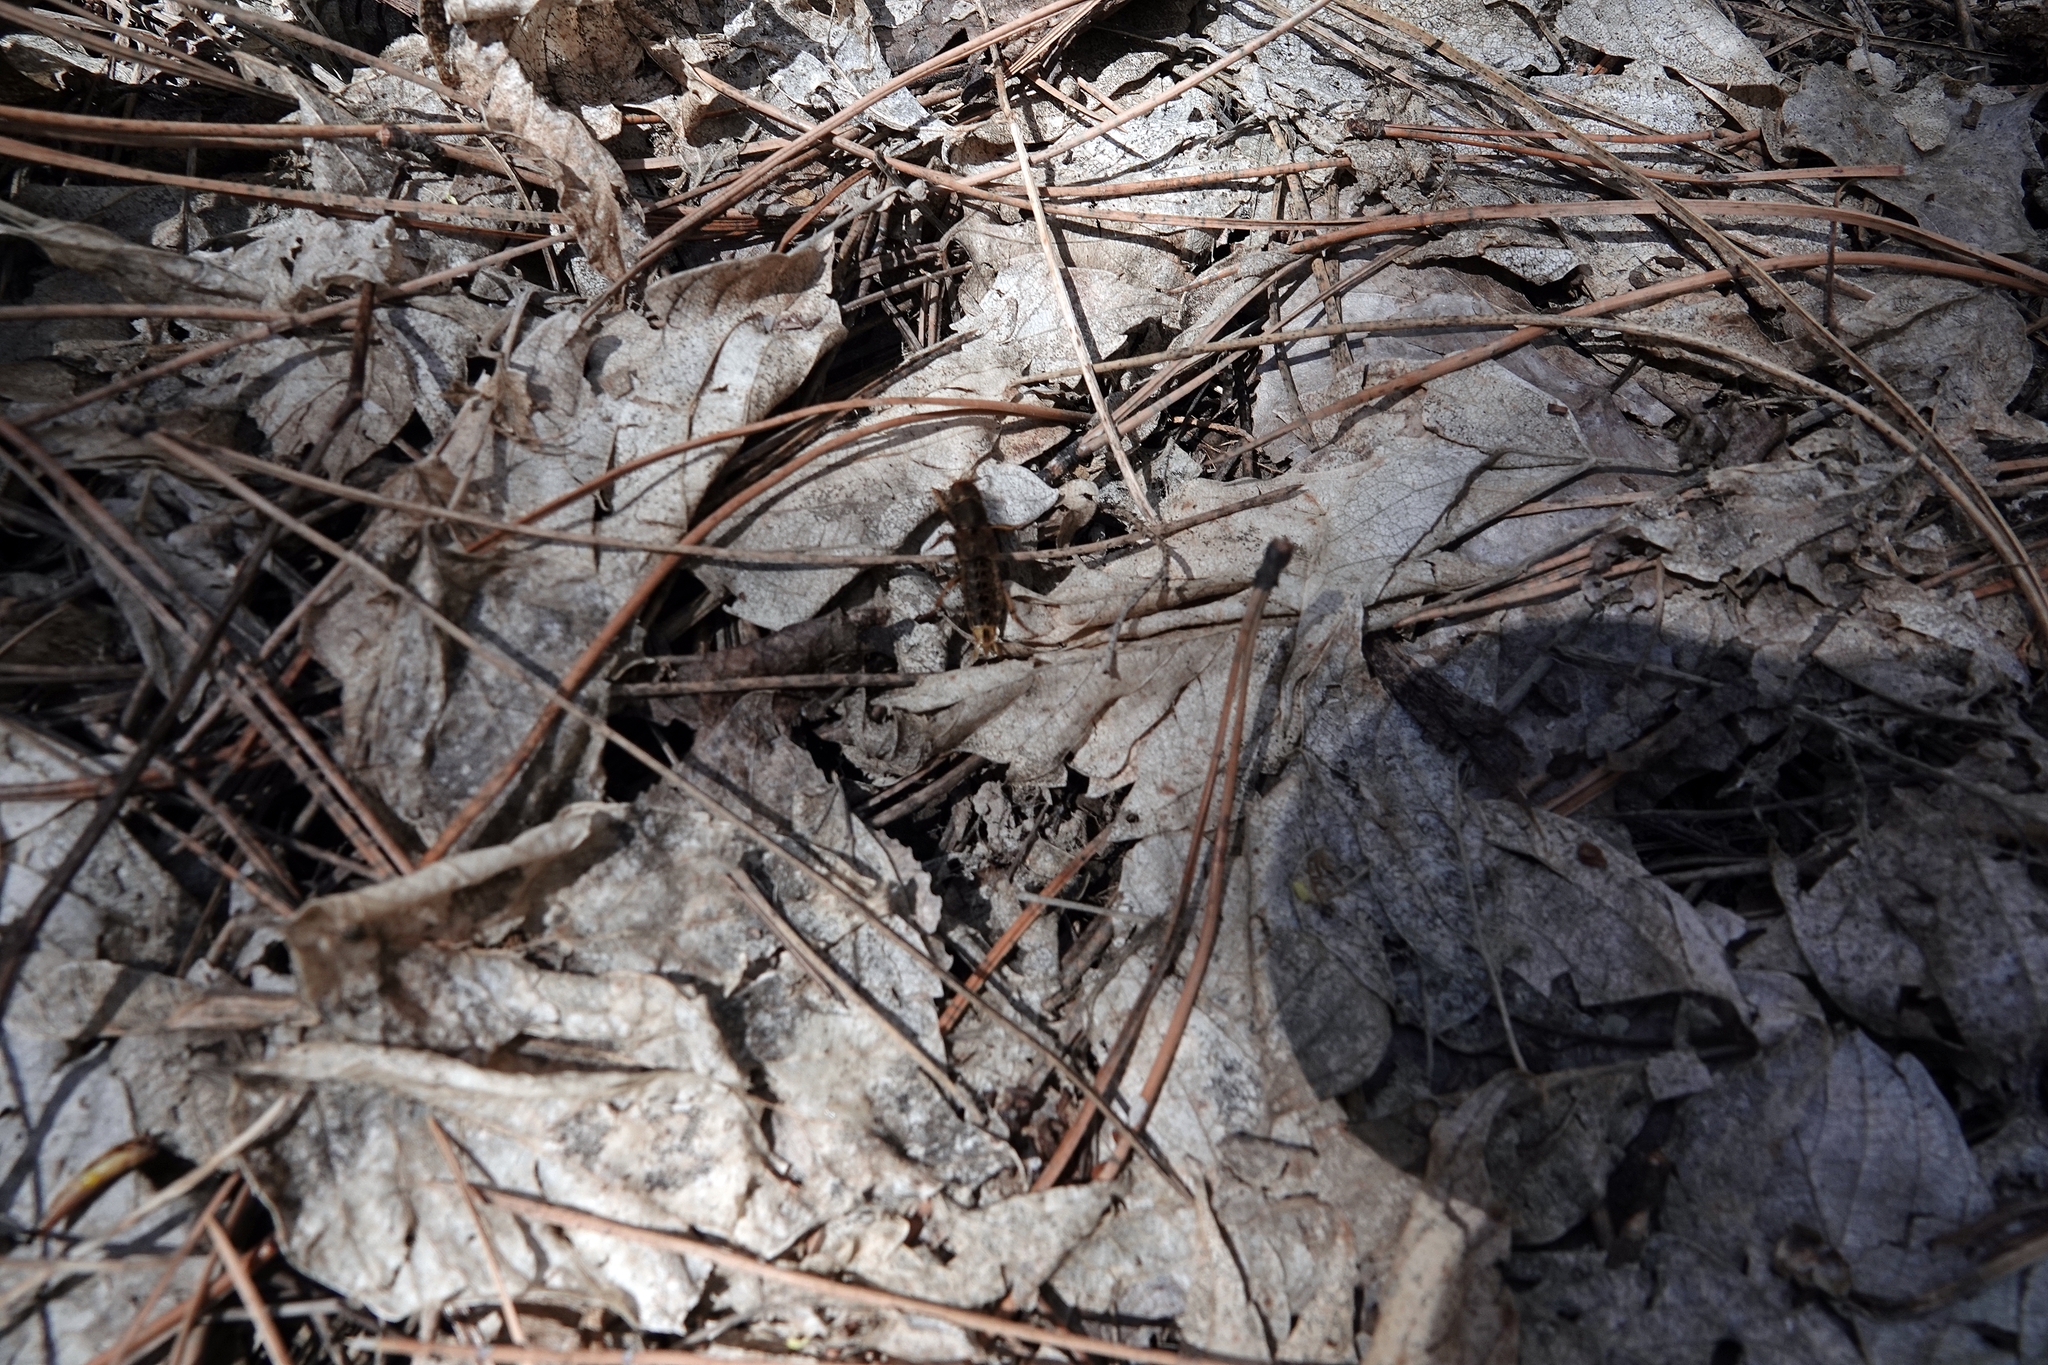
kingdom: Animalia
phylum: Arthropoda
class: Insecta
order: Coleoptera
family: Staphylinidae
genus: Platydracus
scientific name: Platydracus maculosus
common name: Brown rove beetle
